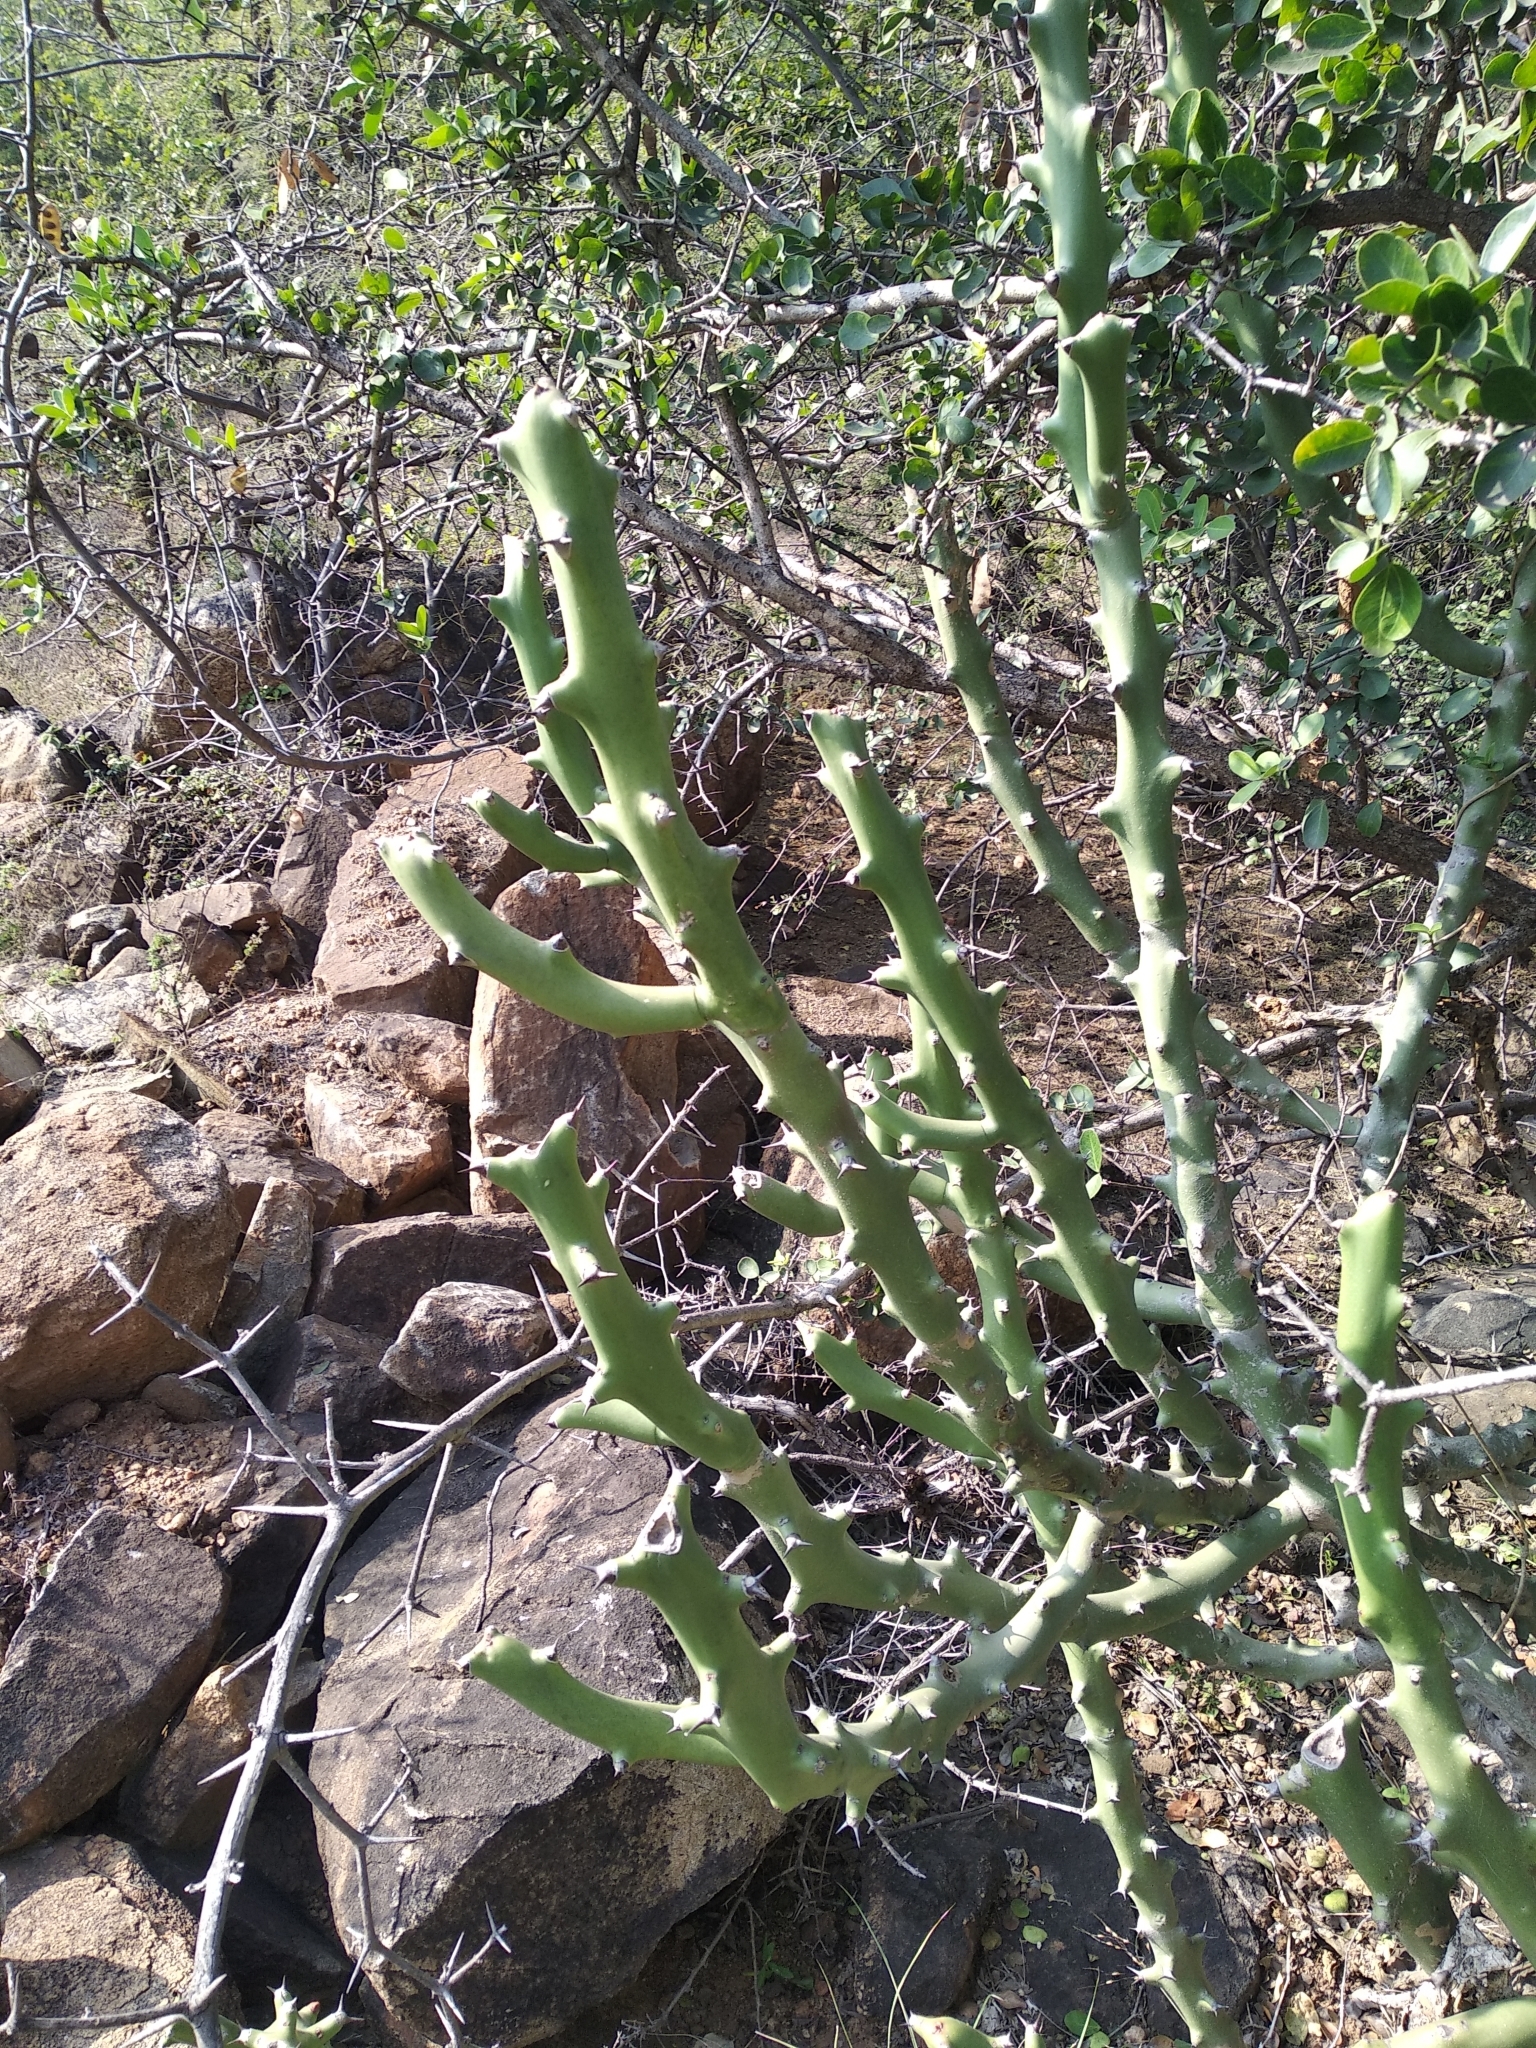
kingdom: Plantae
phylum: Tracheophyta
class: Magnoliopsida
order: Malpighiales
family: Euphorbiaceae
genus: Euphorbia
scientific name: Euphorbia caducifolia
